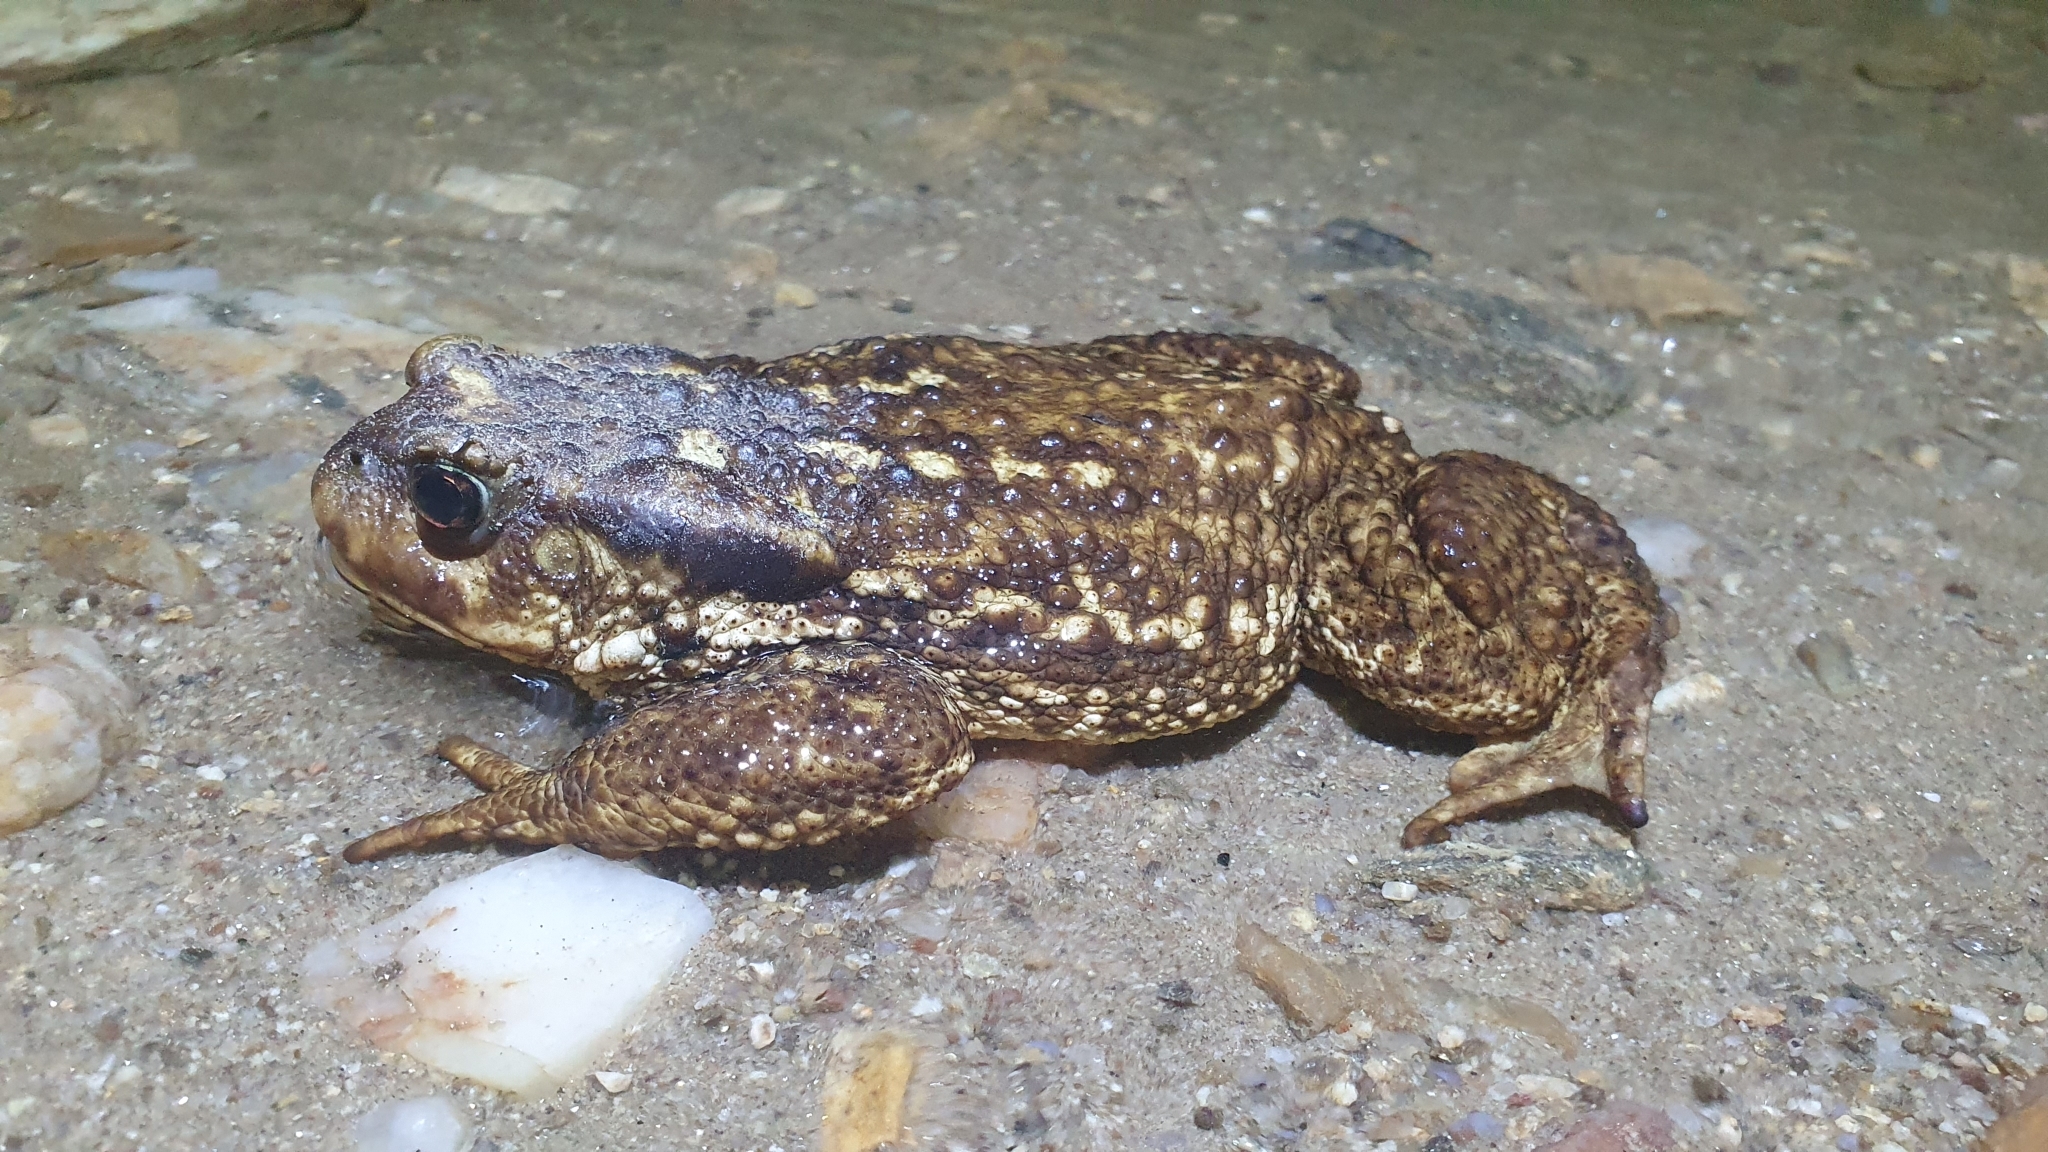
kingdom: Animalia
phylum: Chordata
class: Amphibia
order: Anura
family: Bufonidae
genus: Bufo
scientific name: Bufo spinosus
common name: Western common toad
